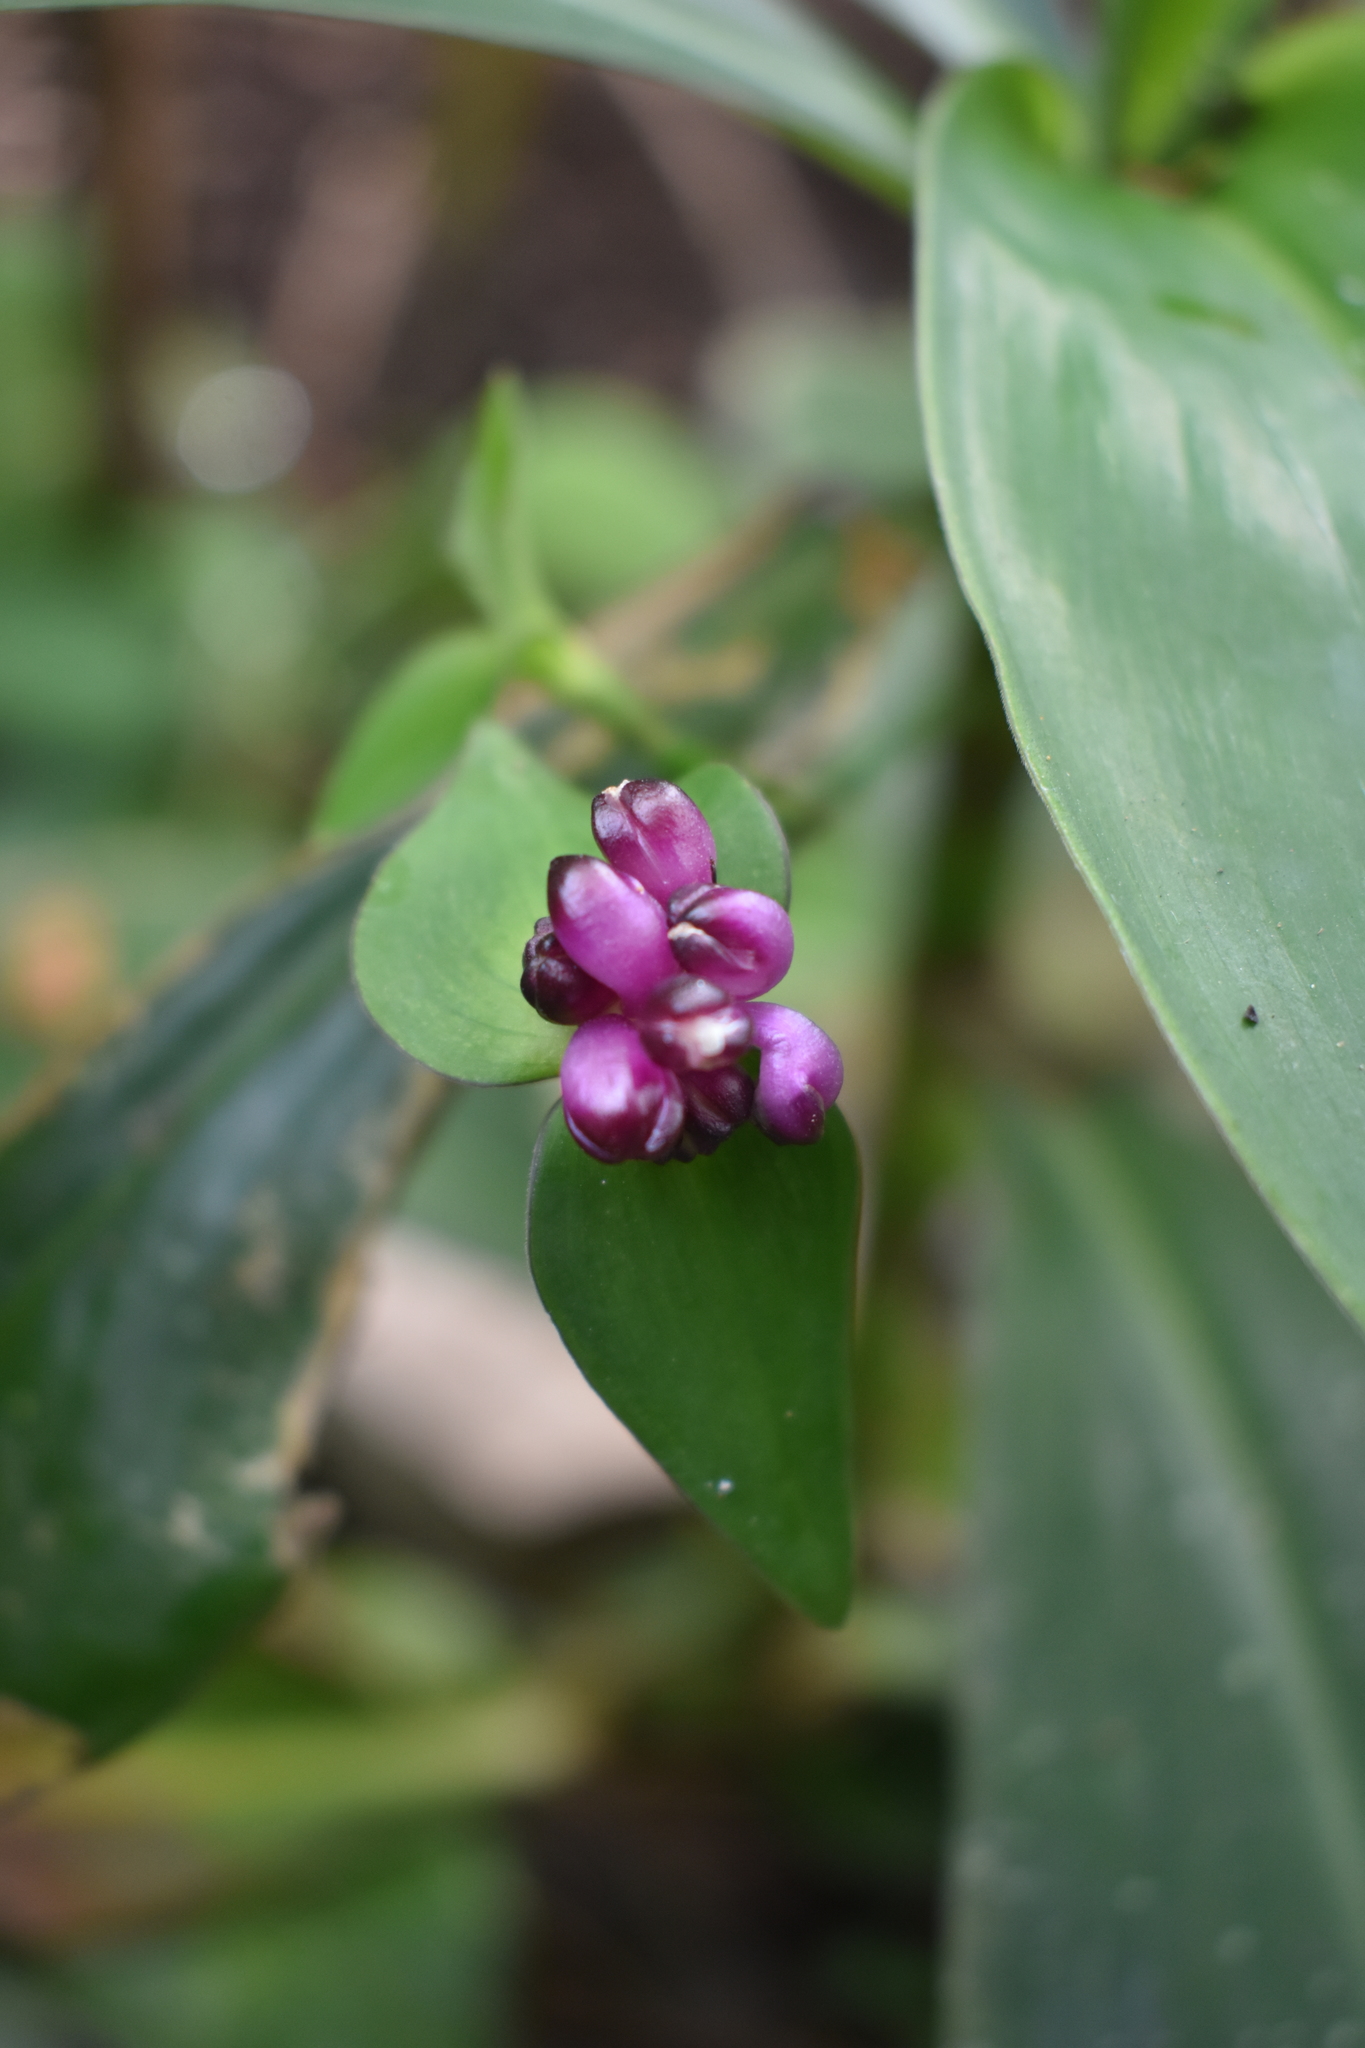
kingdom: Plantae
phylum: Tracheophyta
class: Liliopsida
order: Commelinales
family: Commelinaceae
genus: Tradescantia
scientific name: Tradescantia zanonia
